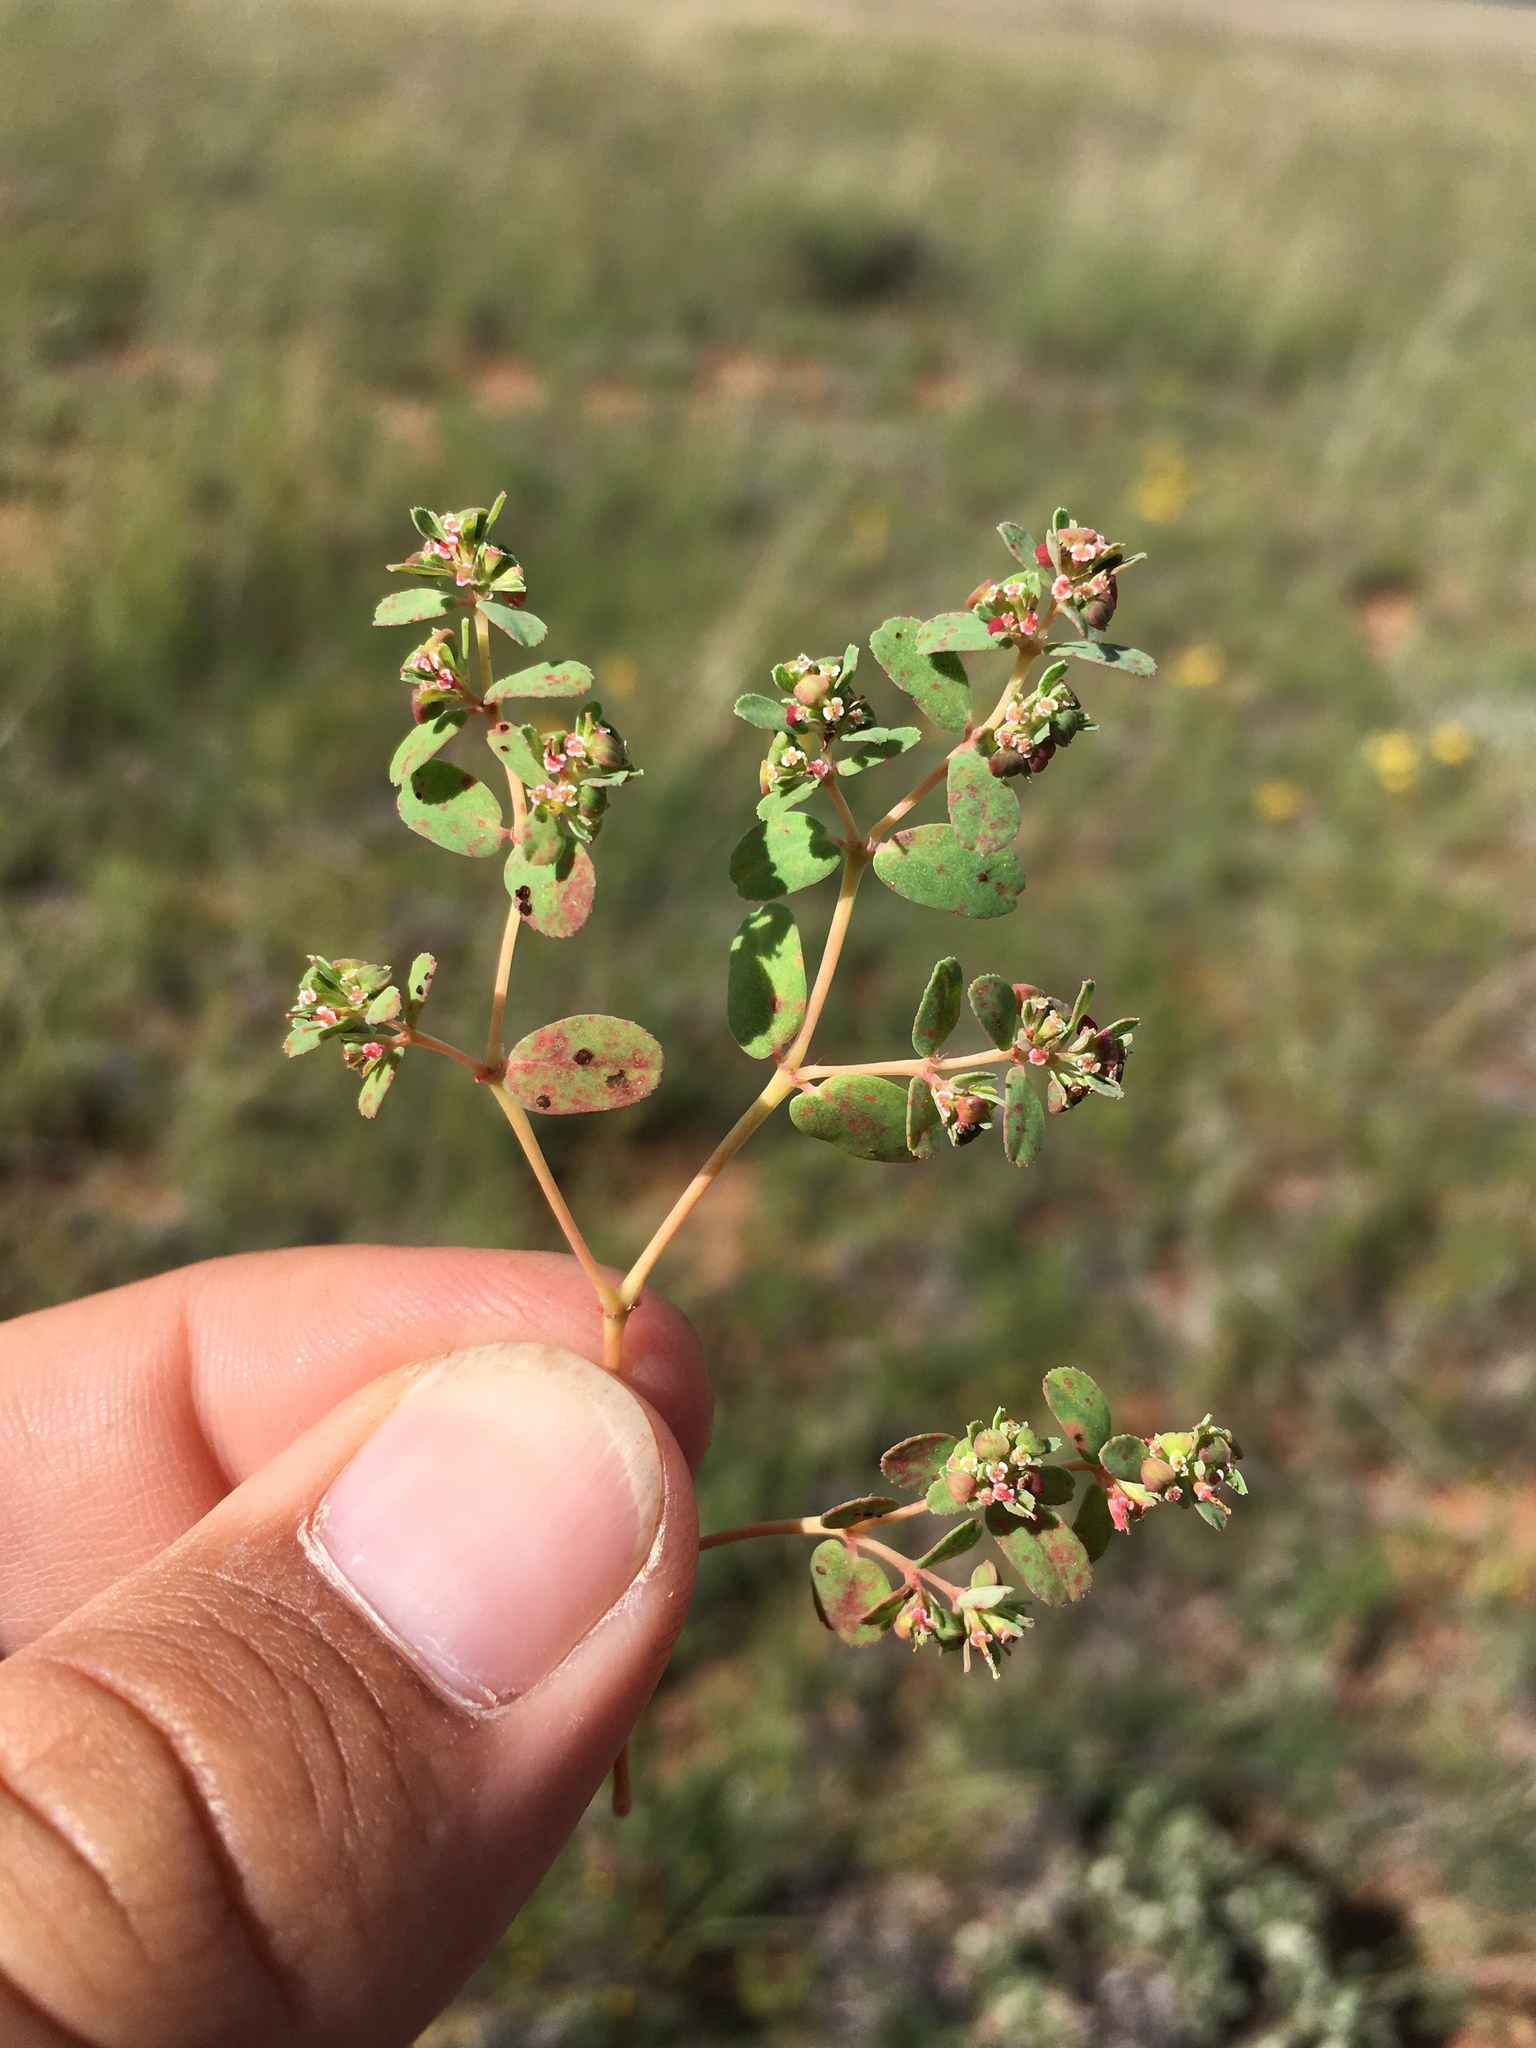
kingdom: Plantae
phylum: Tracheophyta
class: Magnoliopsida
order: Malpighiales
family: Euphorbiaceae
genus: Euphorbia
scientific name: Euphorbia serpillifolia
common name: Thyme-leaf spurge
